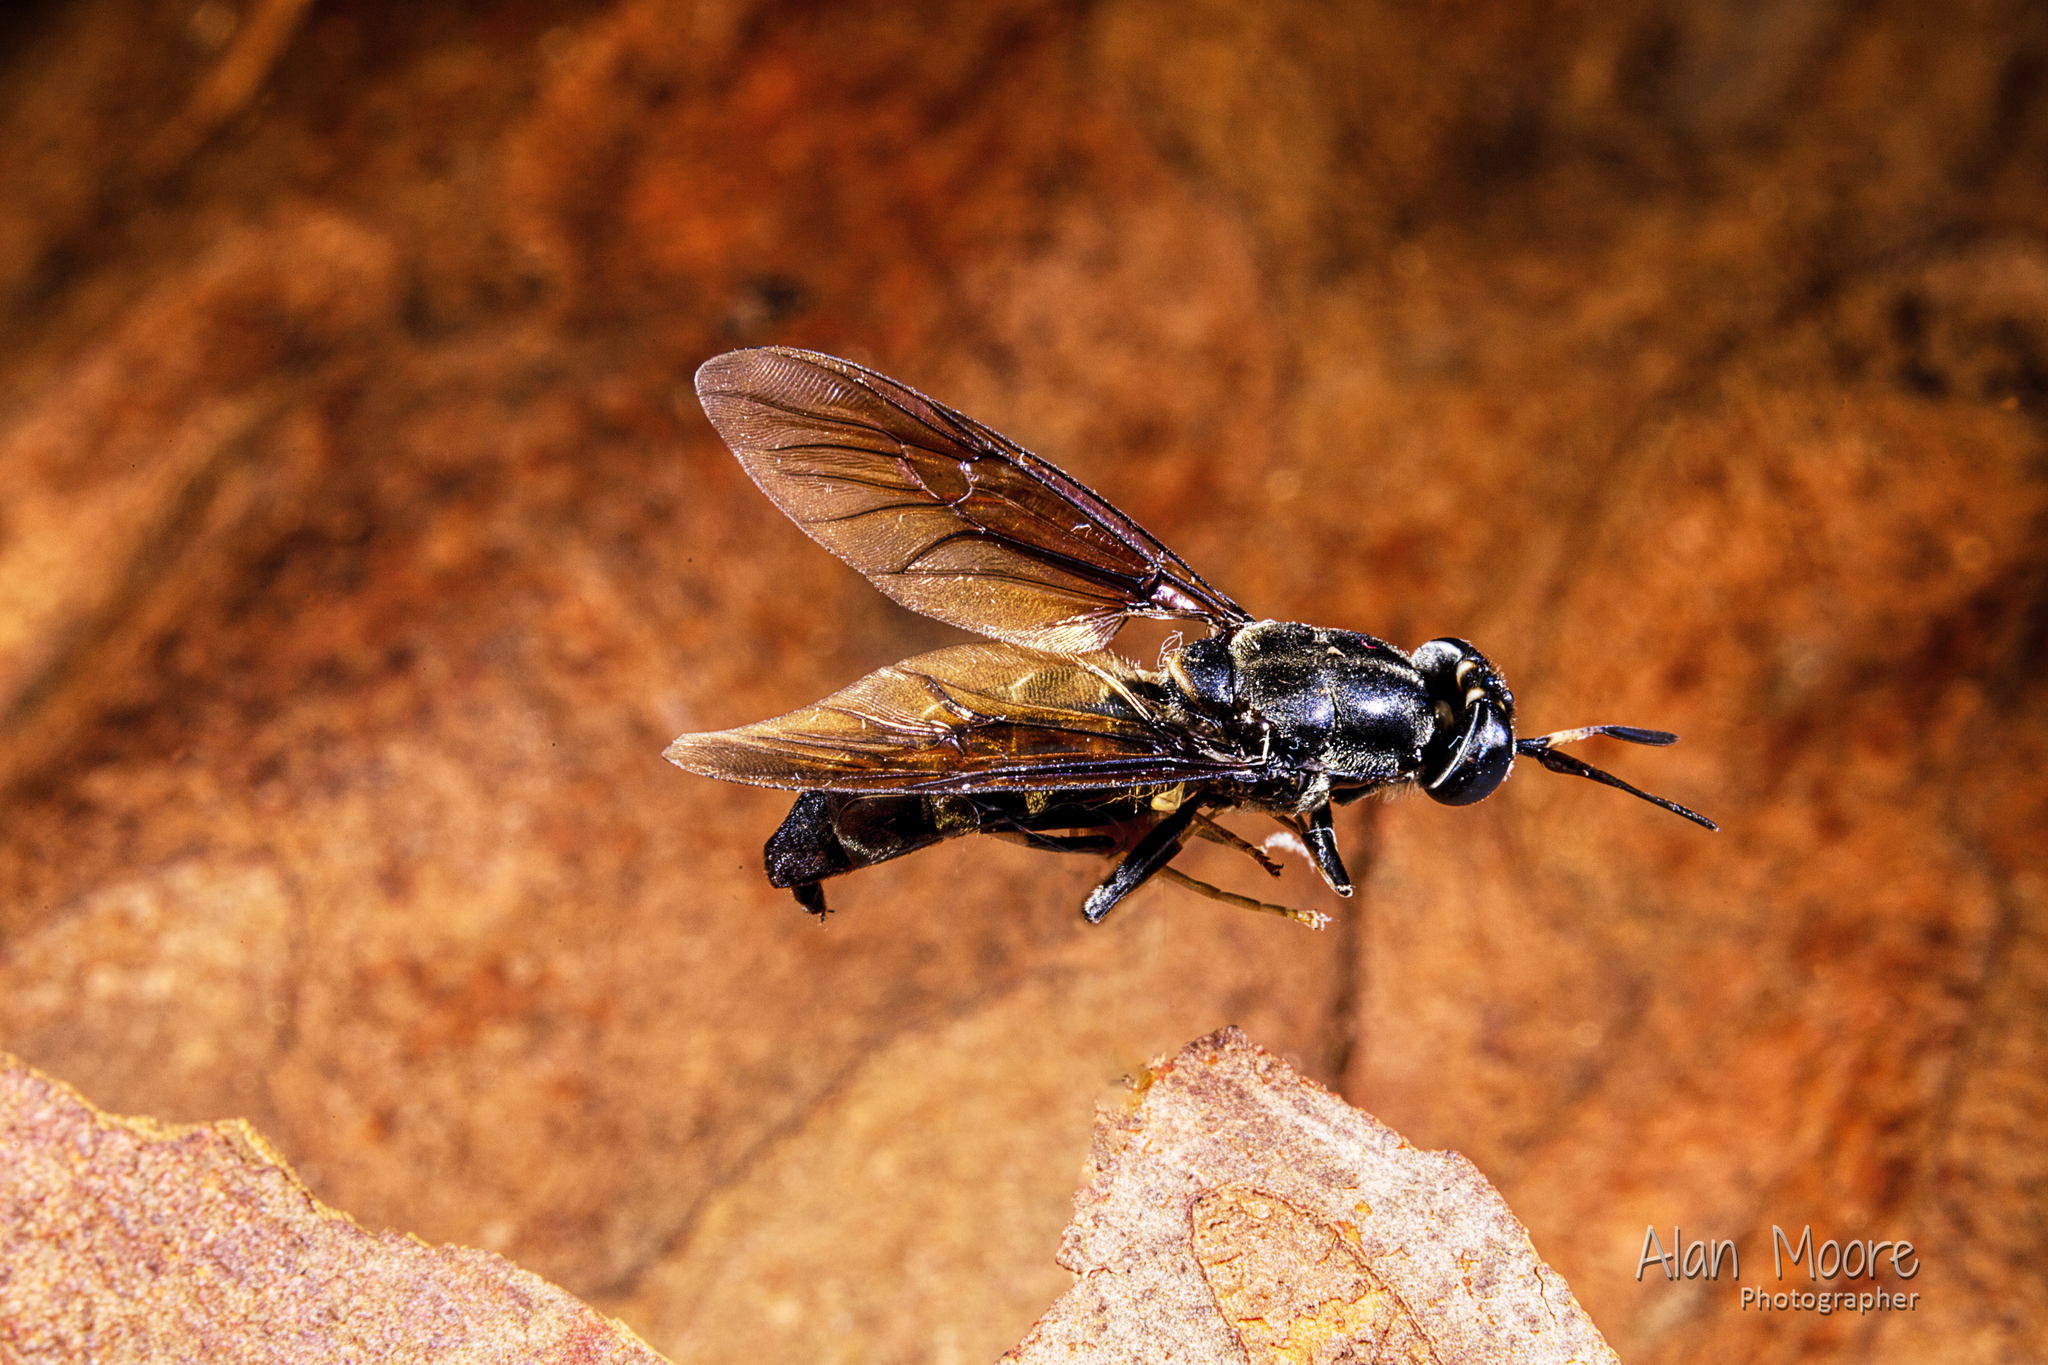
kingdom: Animalia
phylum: Arthropoda
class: Insecta
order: Diptera
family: Stratiomyidae
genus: Hermetia
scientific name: Hermetia illucens
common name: Black soldier fly
